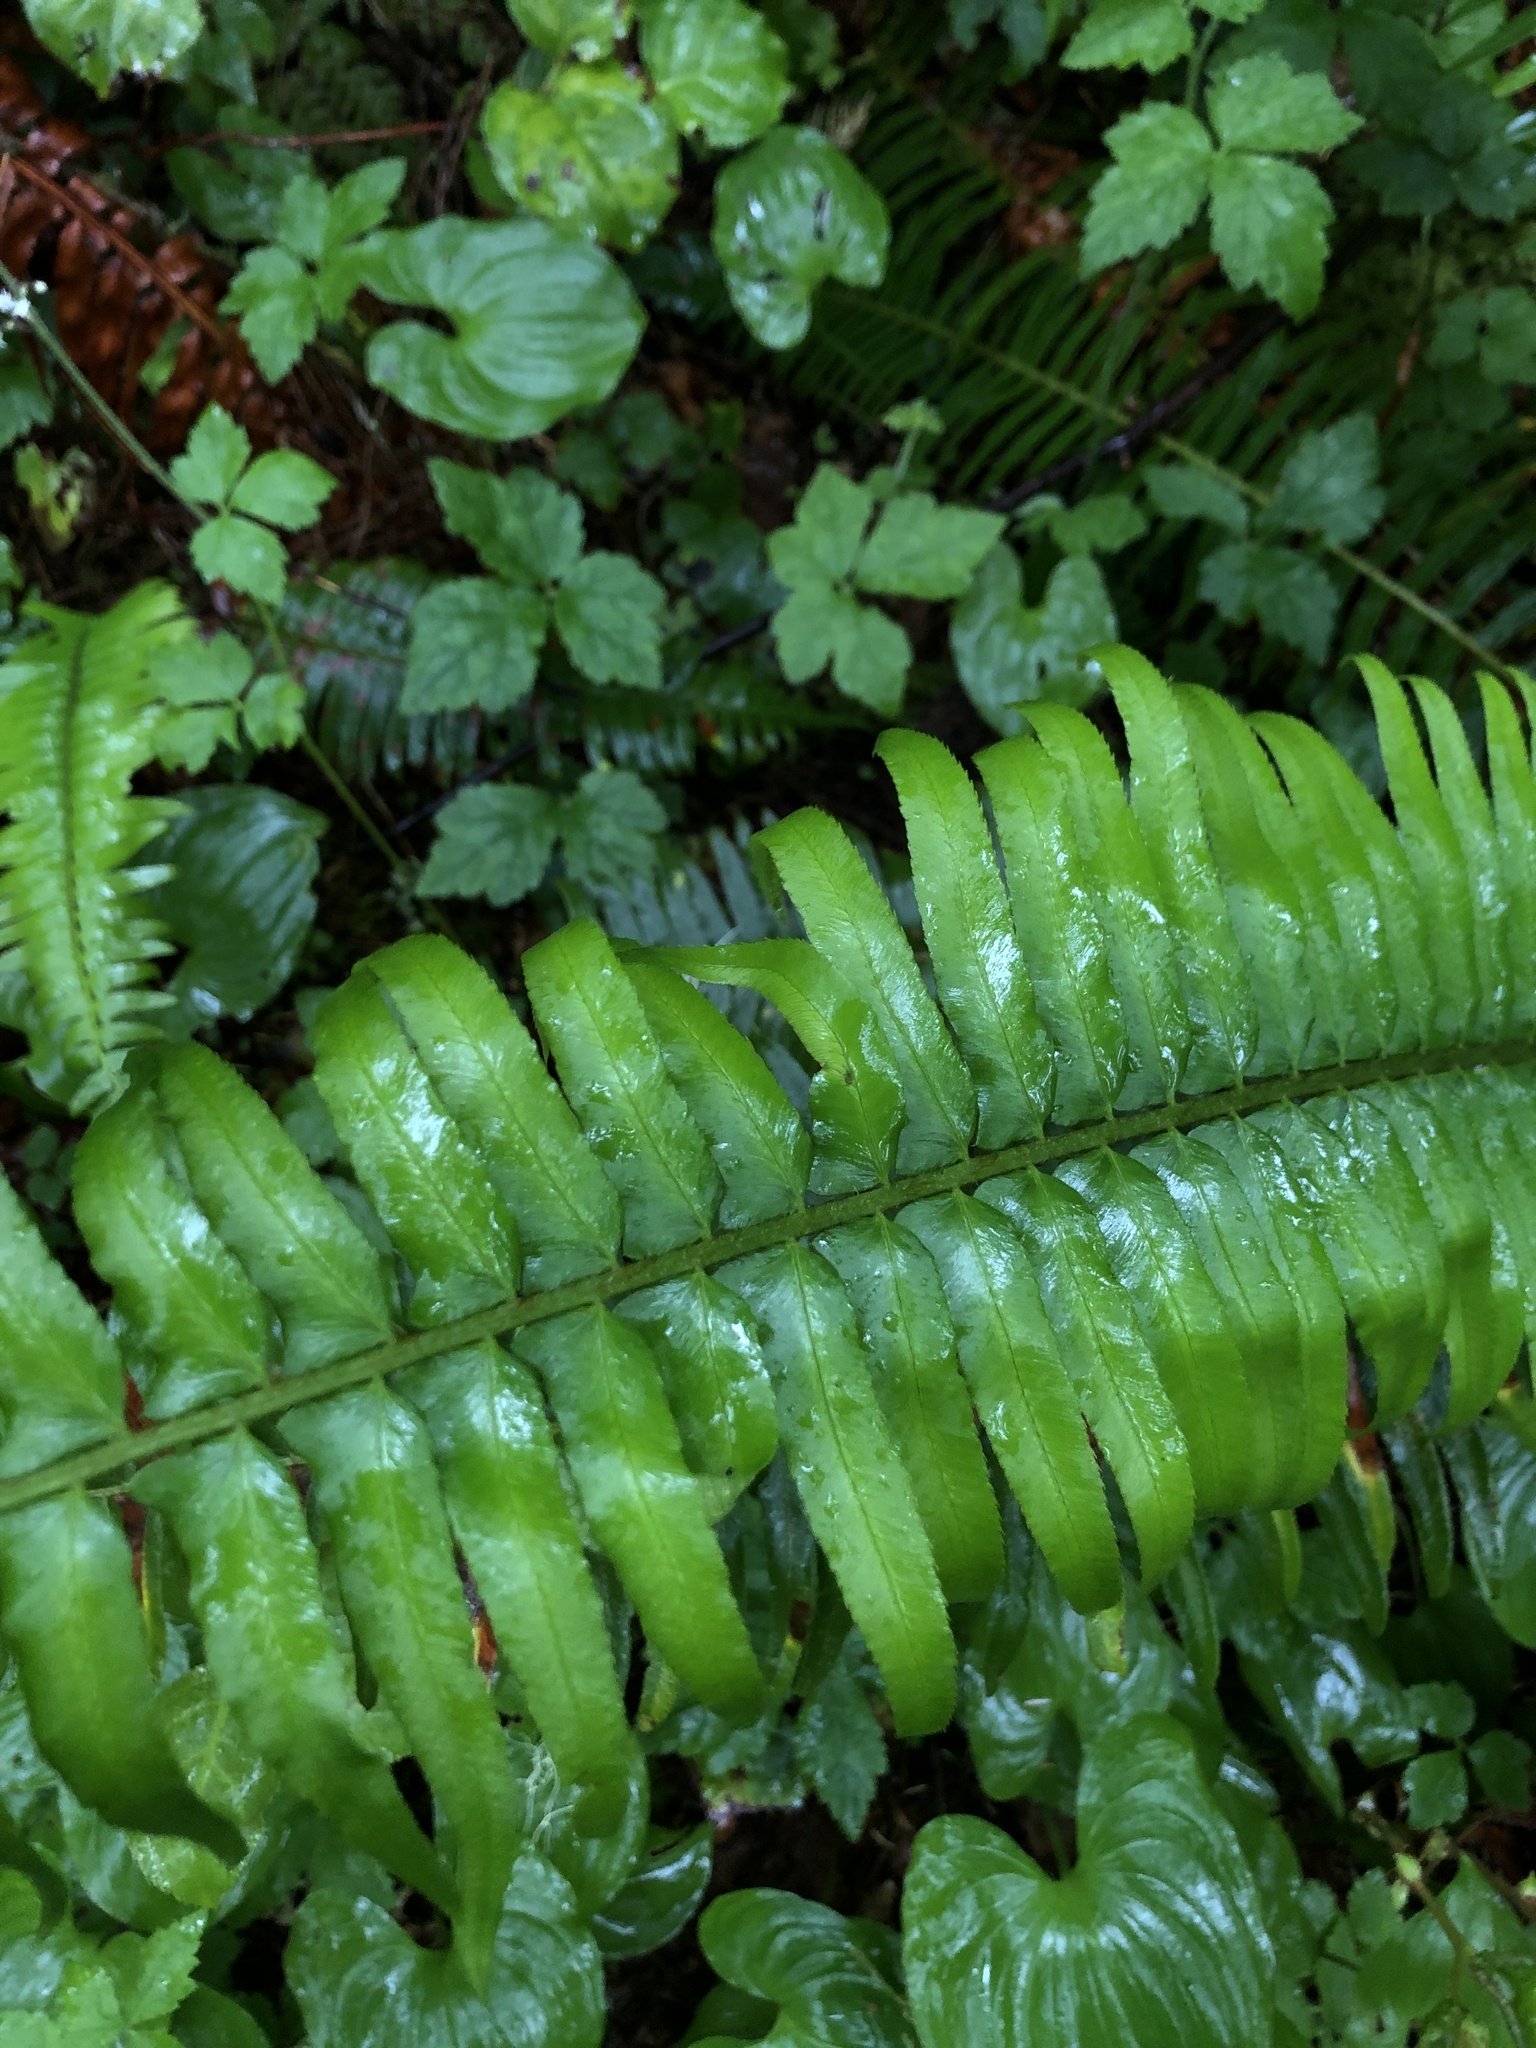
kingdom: Plantae
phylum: Tracheophyta
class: Polypodiopsida
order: Polypodiales
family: Dryopteridaceae
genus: Polystichum
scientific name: Polystichum munitum
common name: Western sword-fern
